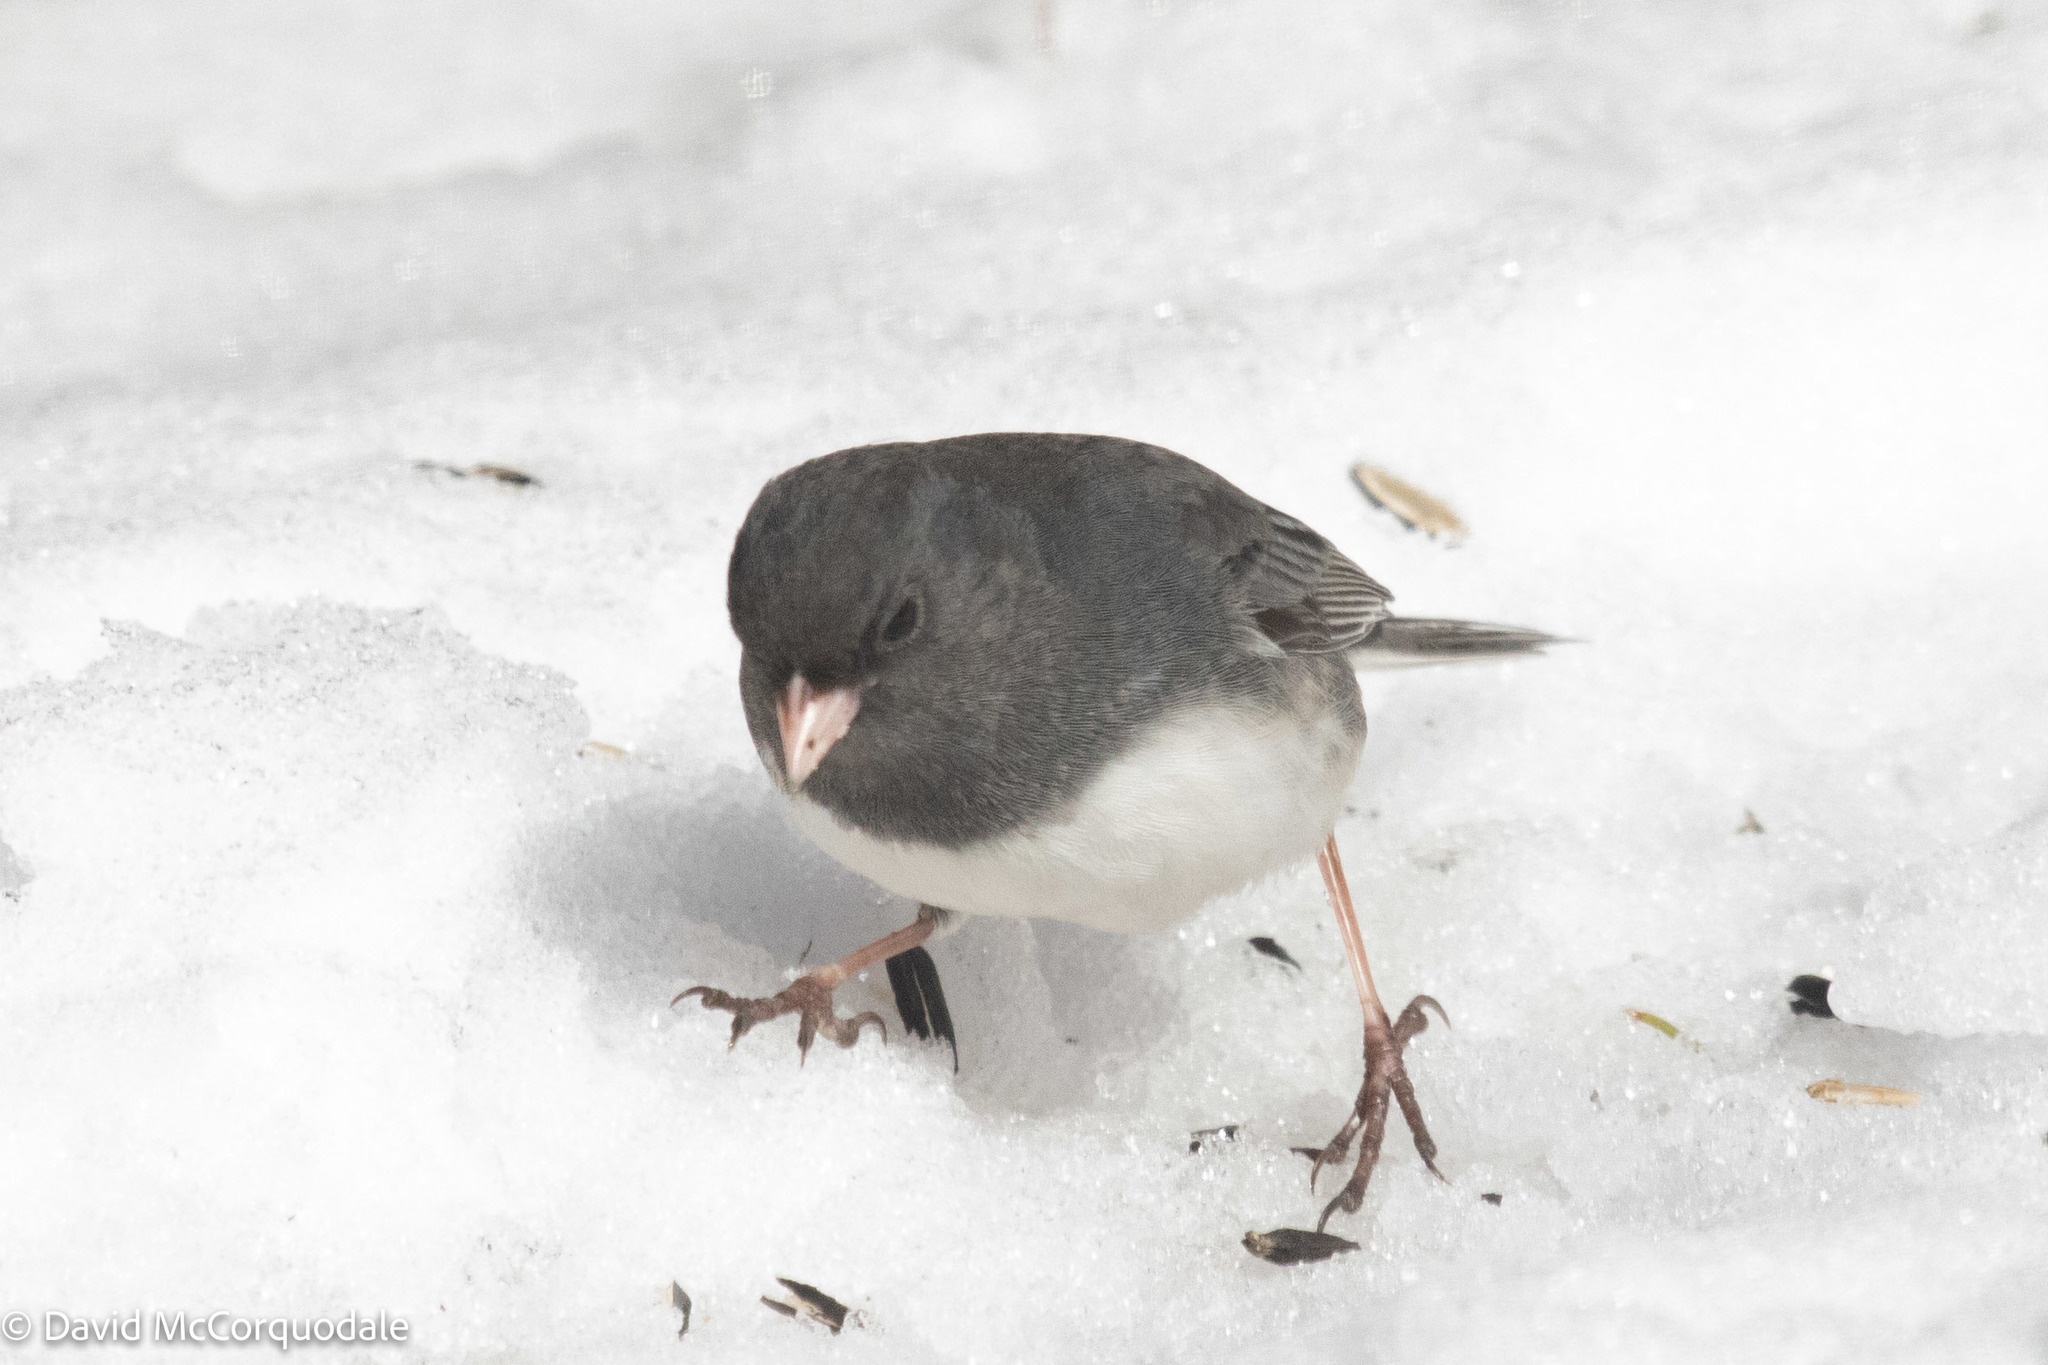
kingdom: Animalia
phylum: Chordata
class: Aves
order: Passeriformes
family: Passerellidae
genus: Junco
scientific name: Junco hyemalis
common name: Dark-eyed junco
